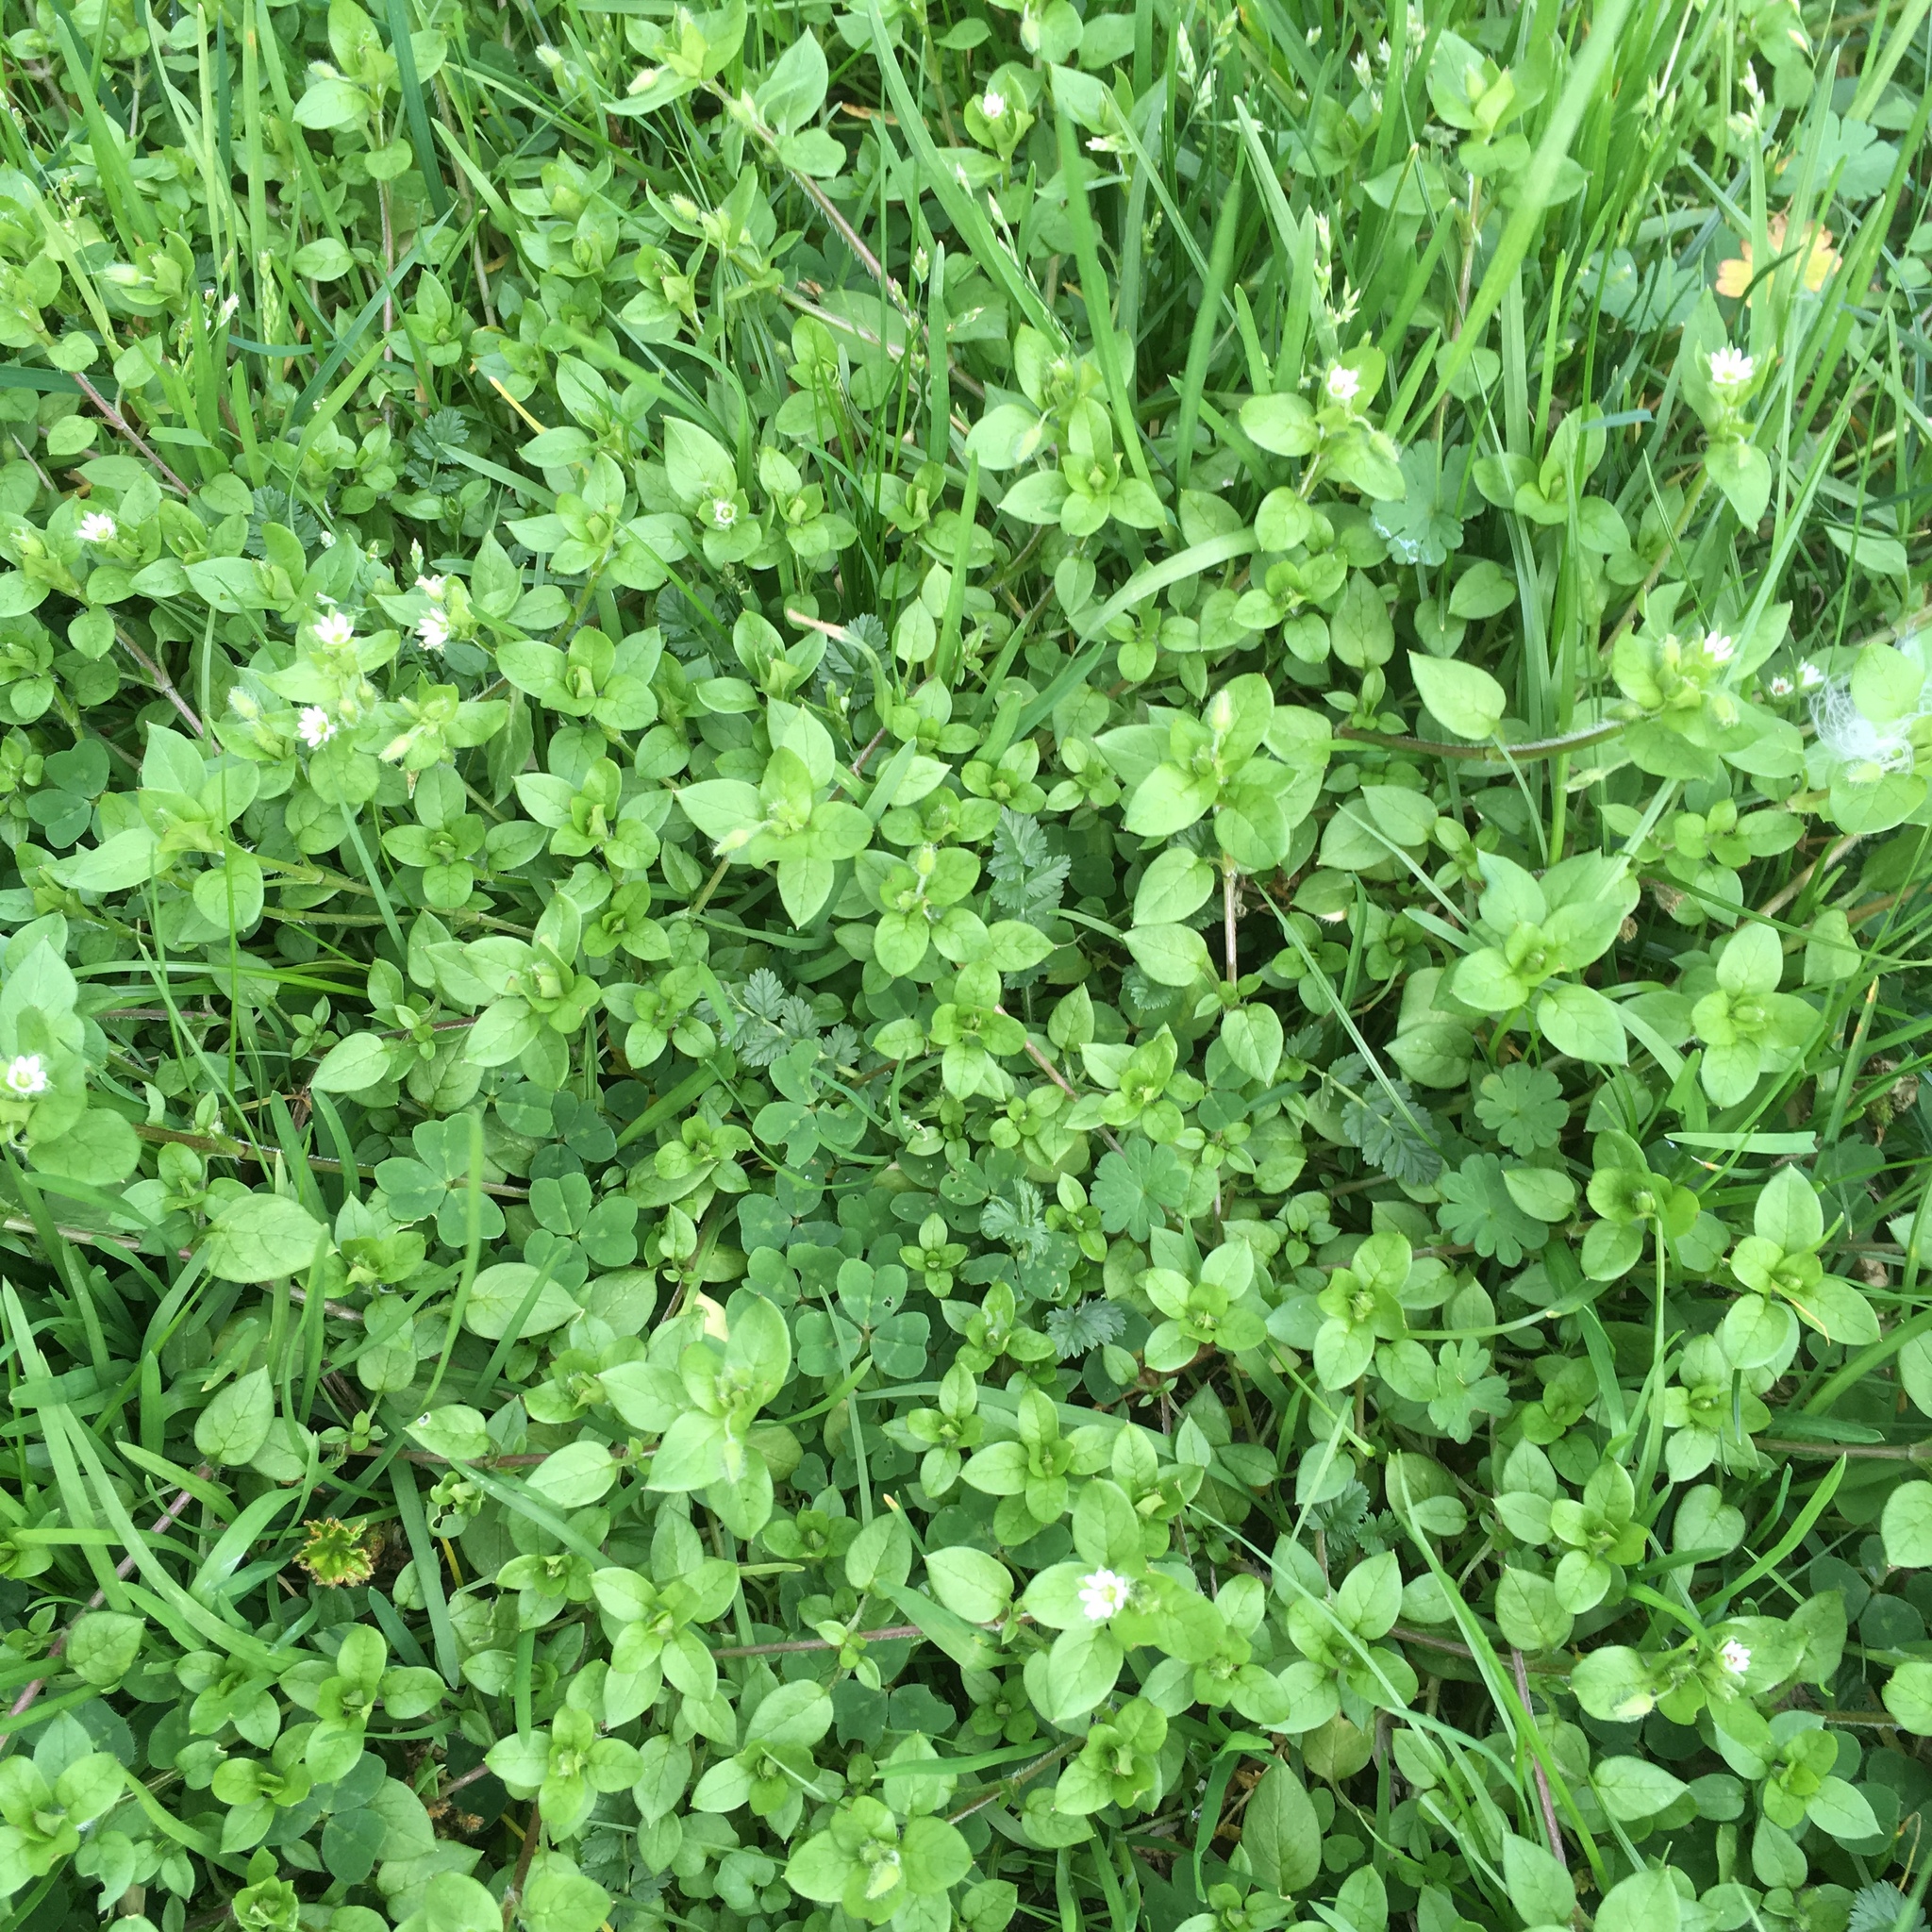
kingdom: Plantae
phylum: Tracheophyta
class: Magnoliopsida
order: Caryophyllales
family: Caryophyllaceae
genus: Stellaria
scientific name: Stellaria media
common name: Common chickweed
